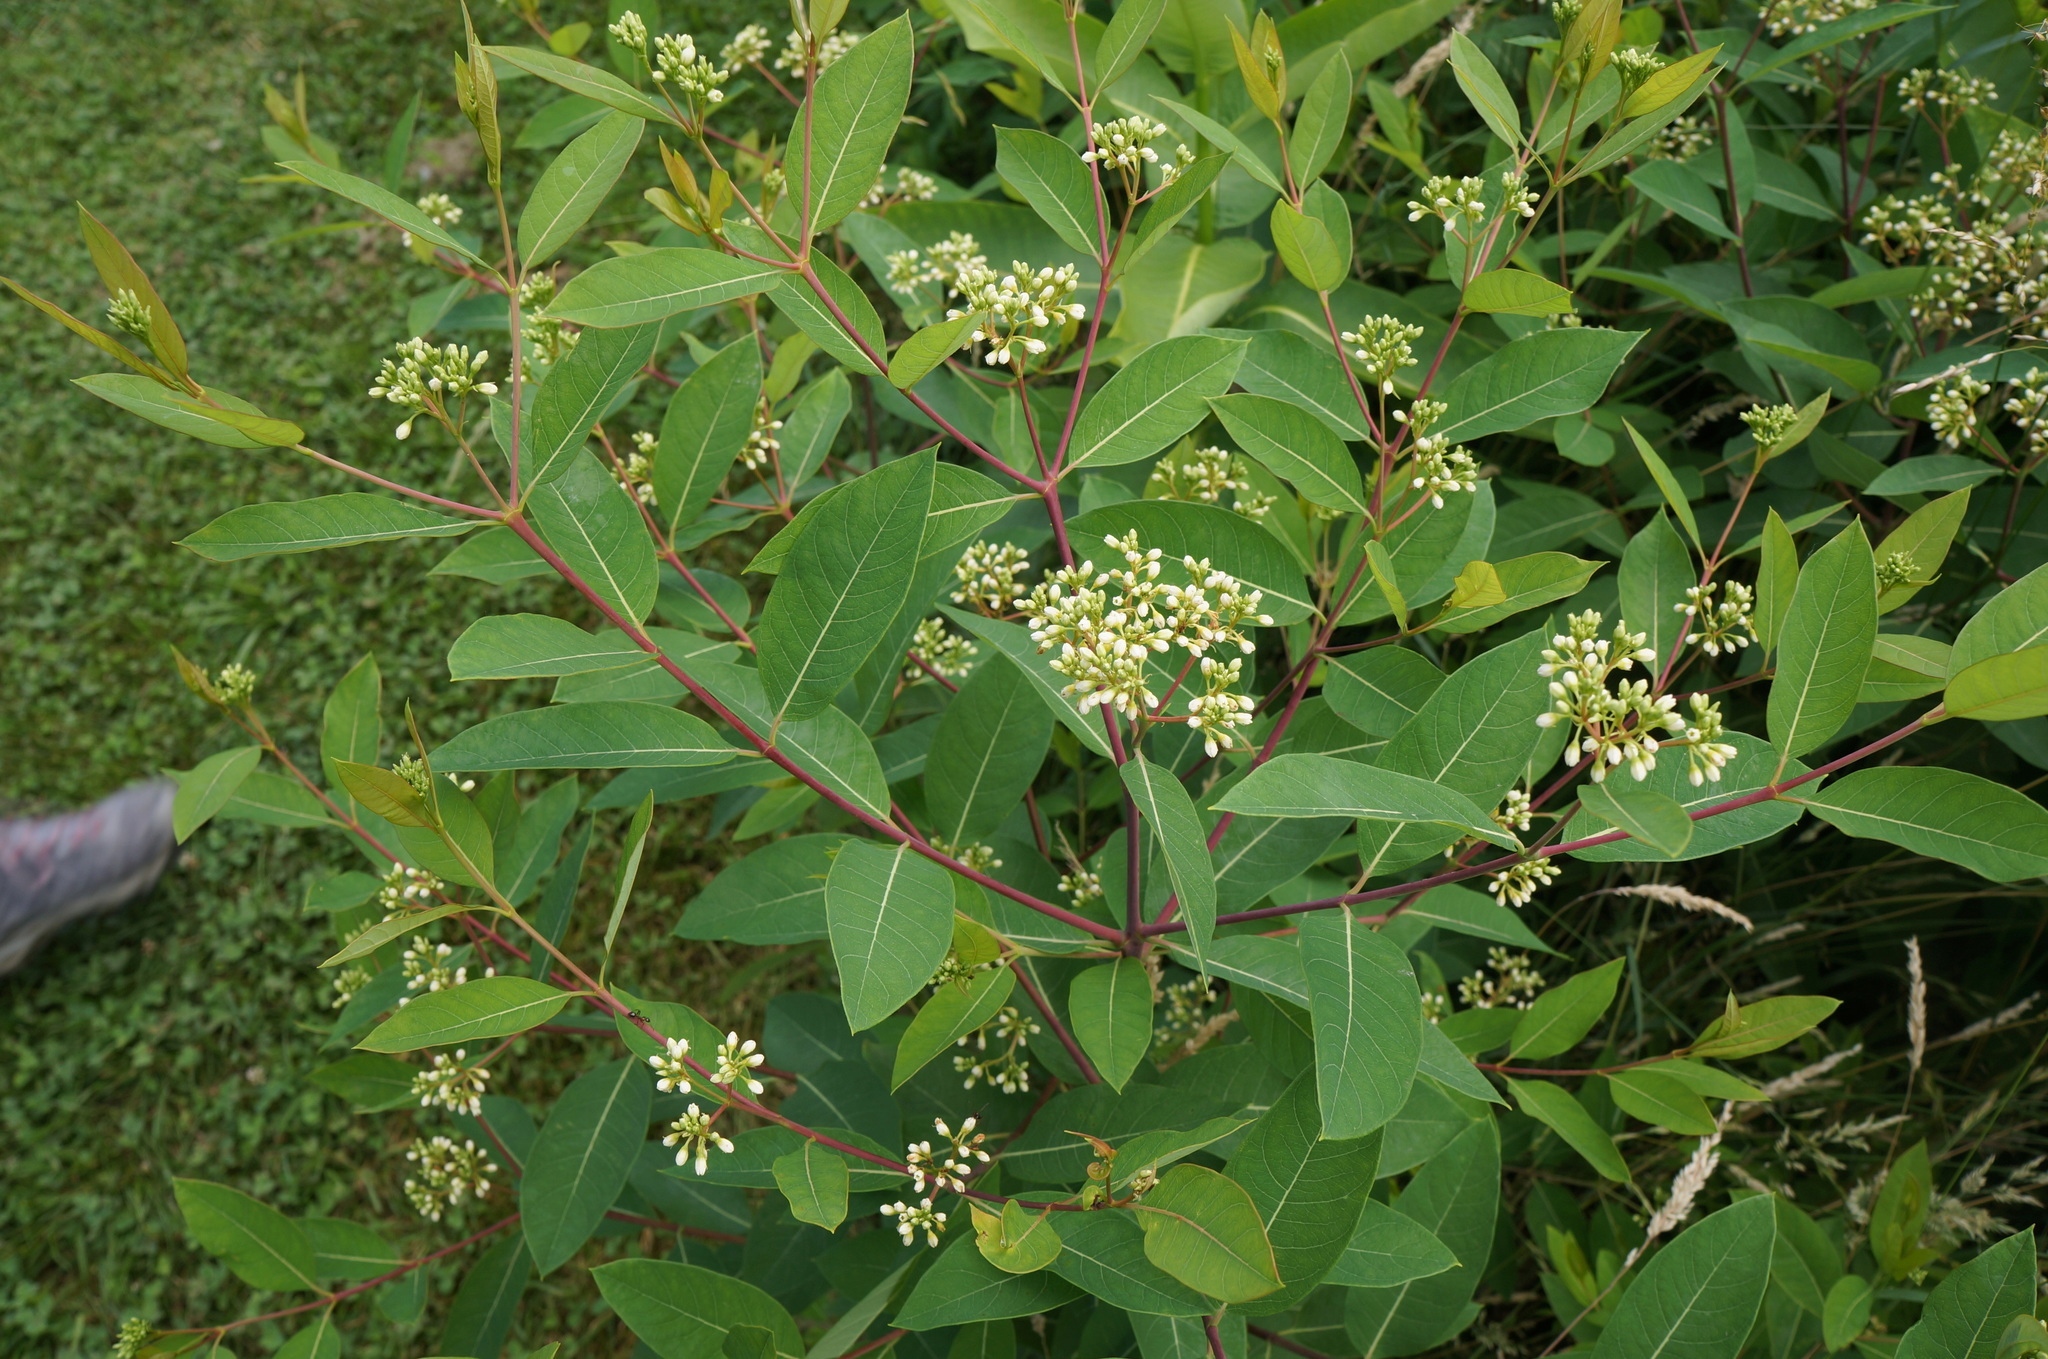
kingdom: Plantae
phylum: Tracheophyta
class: Magnoliopsida
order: Gentianales
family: Apocynaceae
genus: Apocynum
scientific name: Apocynum cannabinum
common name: Hemp dogbane
